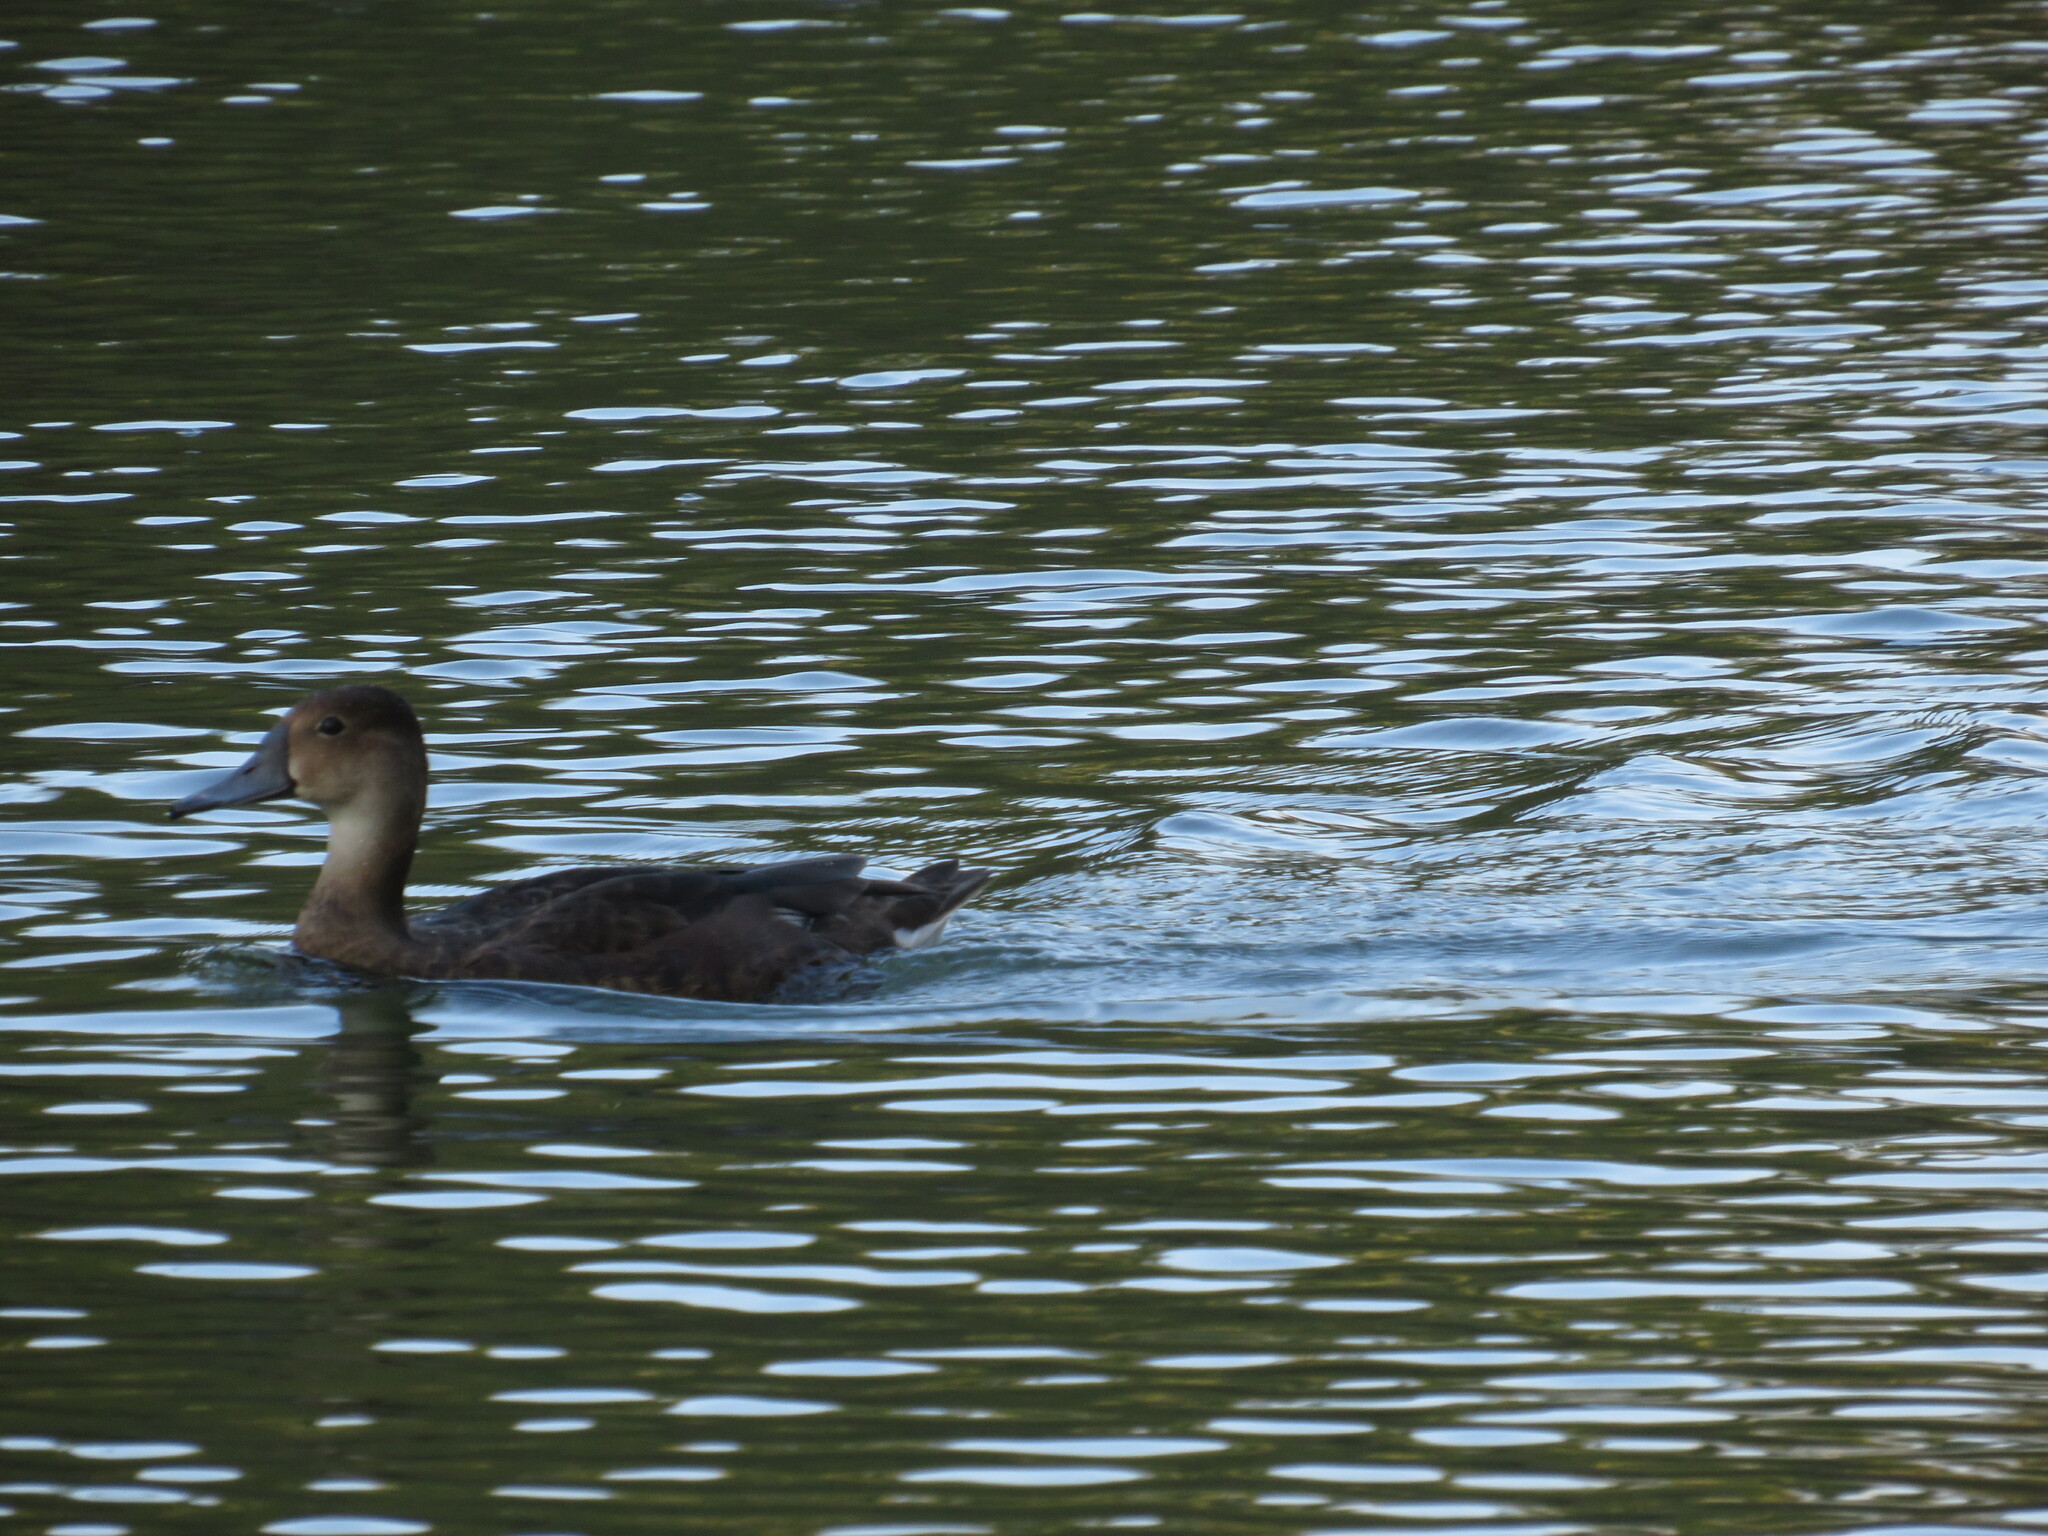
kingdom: Animalia
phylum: Chordata
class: Aves
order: Anseriformes
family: Anatidae
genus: Netta
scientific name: Netta peposaca
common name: Rosy-billed pochard
